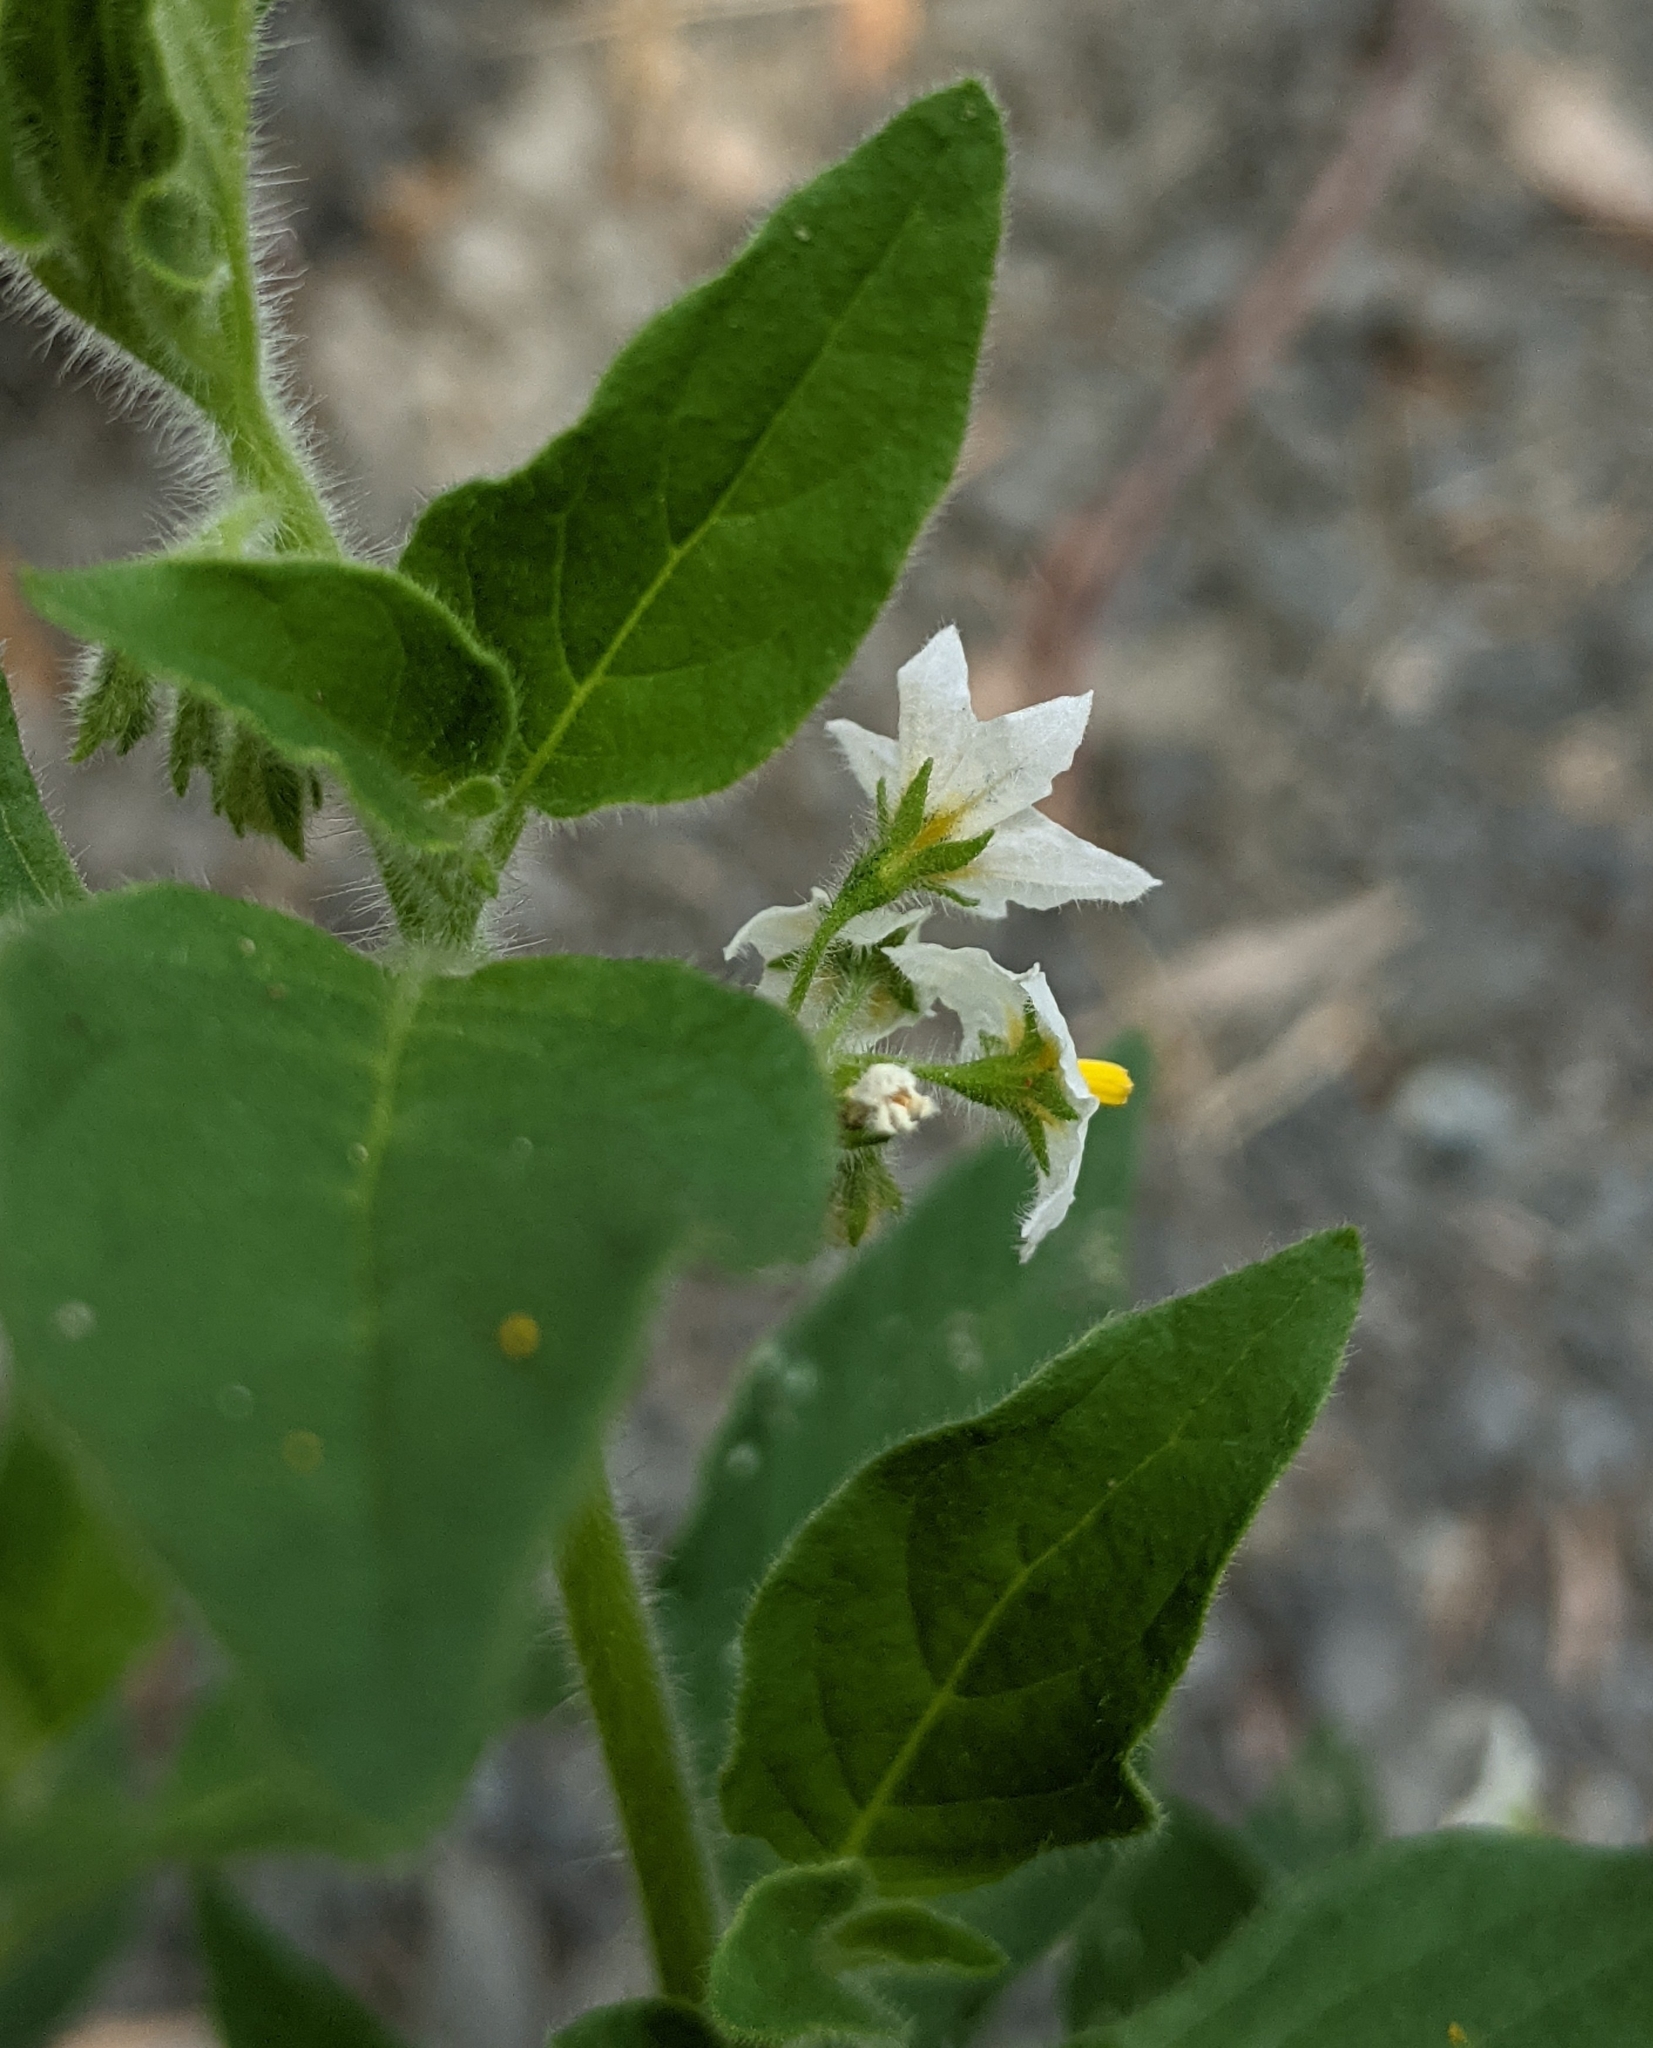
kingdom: Plantae
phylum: Tracheophyta
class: Magnoliopsida
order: Solanales
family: Solanaceae
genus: Solanum
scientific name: Solanum nitidibaccatum
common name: Hairy nightshade
